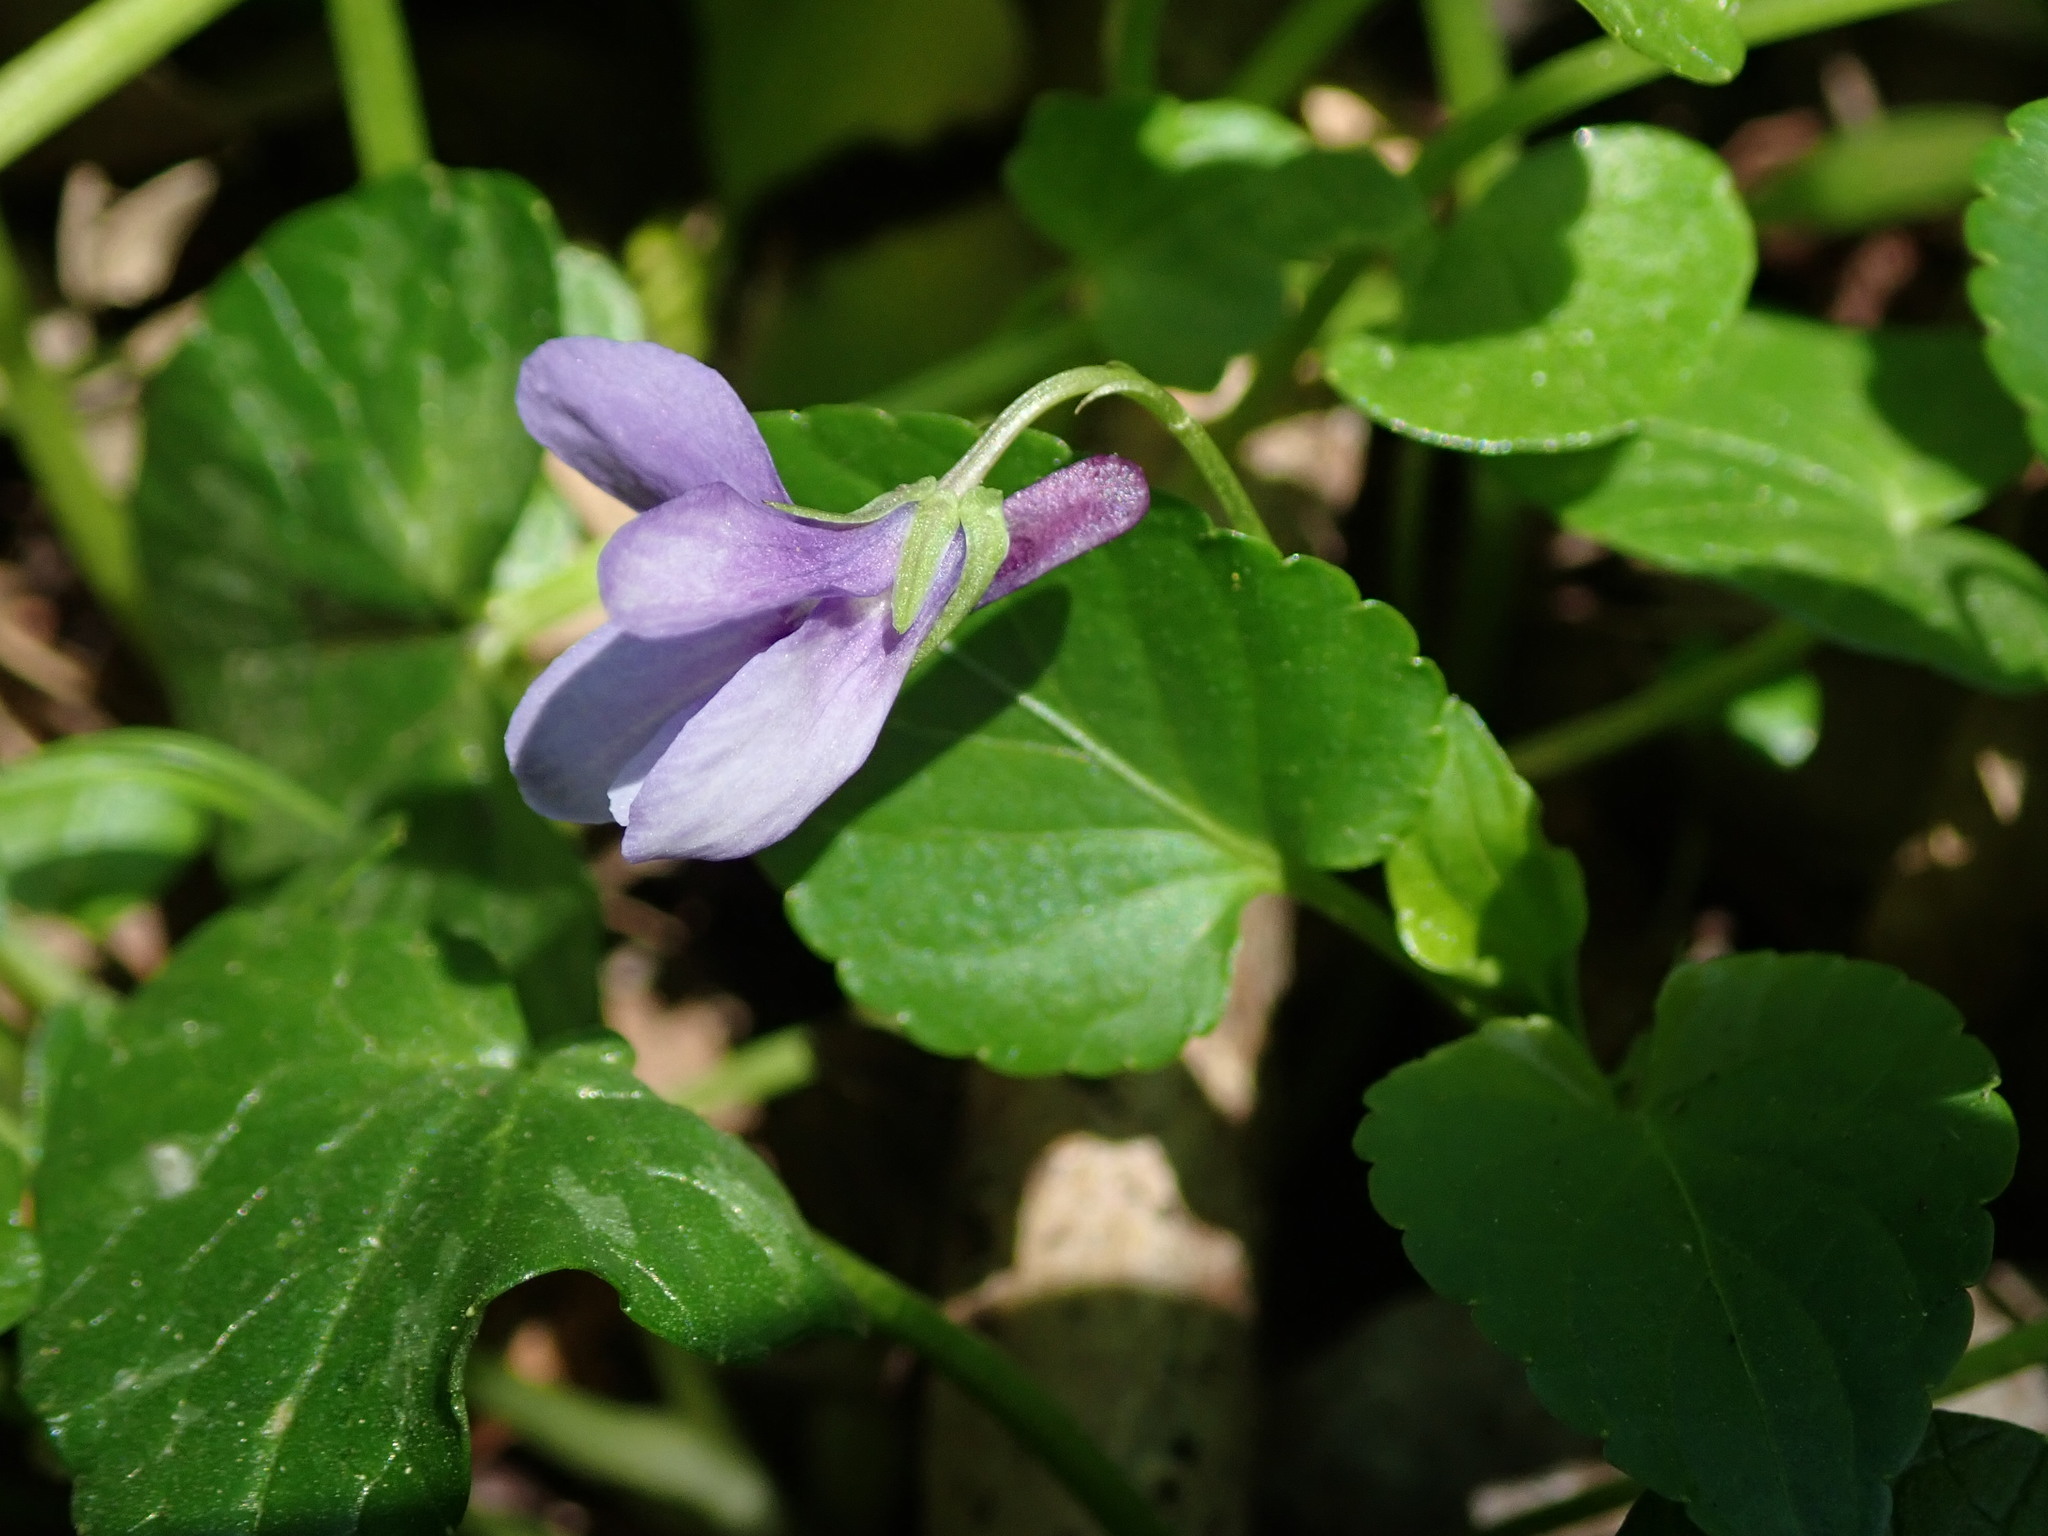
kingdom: Plantae
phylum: Tracheophyta
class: Magnoliopsida
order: Malpighiales
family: Violaceae
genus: Viola
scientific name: Viola reichenbachiana
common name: Early dog-violet
